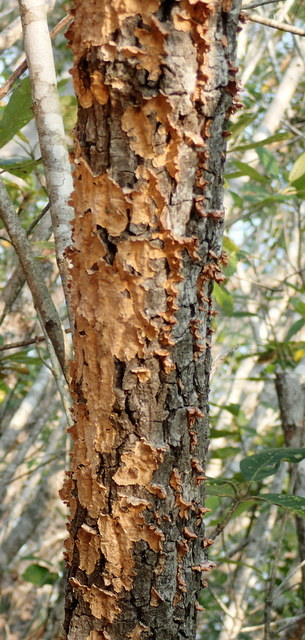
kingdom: Fungi
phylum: Basidiomycota
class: Agaricomycetes
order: Russulales
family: Stereaceae
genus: Stereum
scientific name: Stereum complicatum
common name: Crowded parchment
